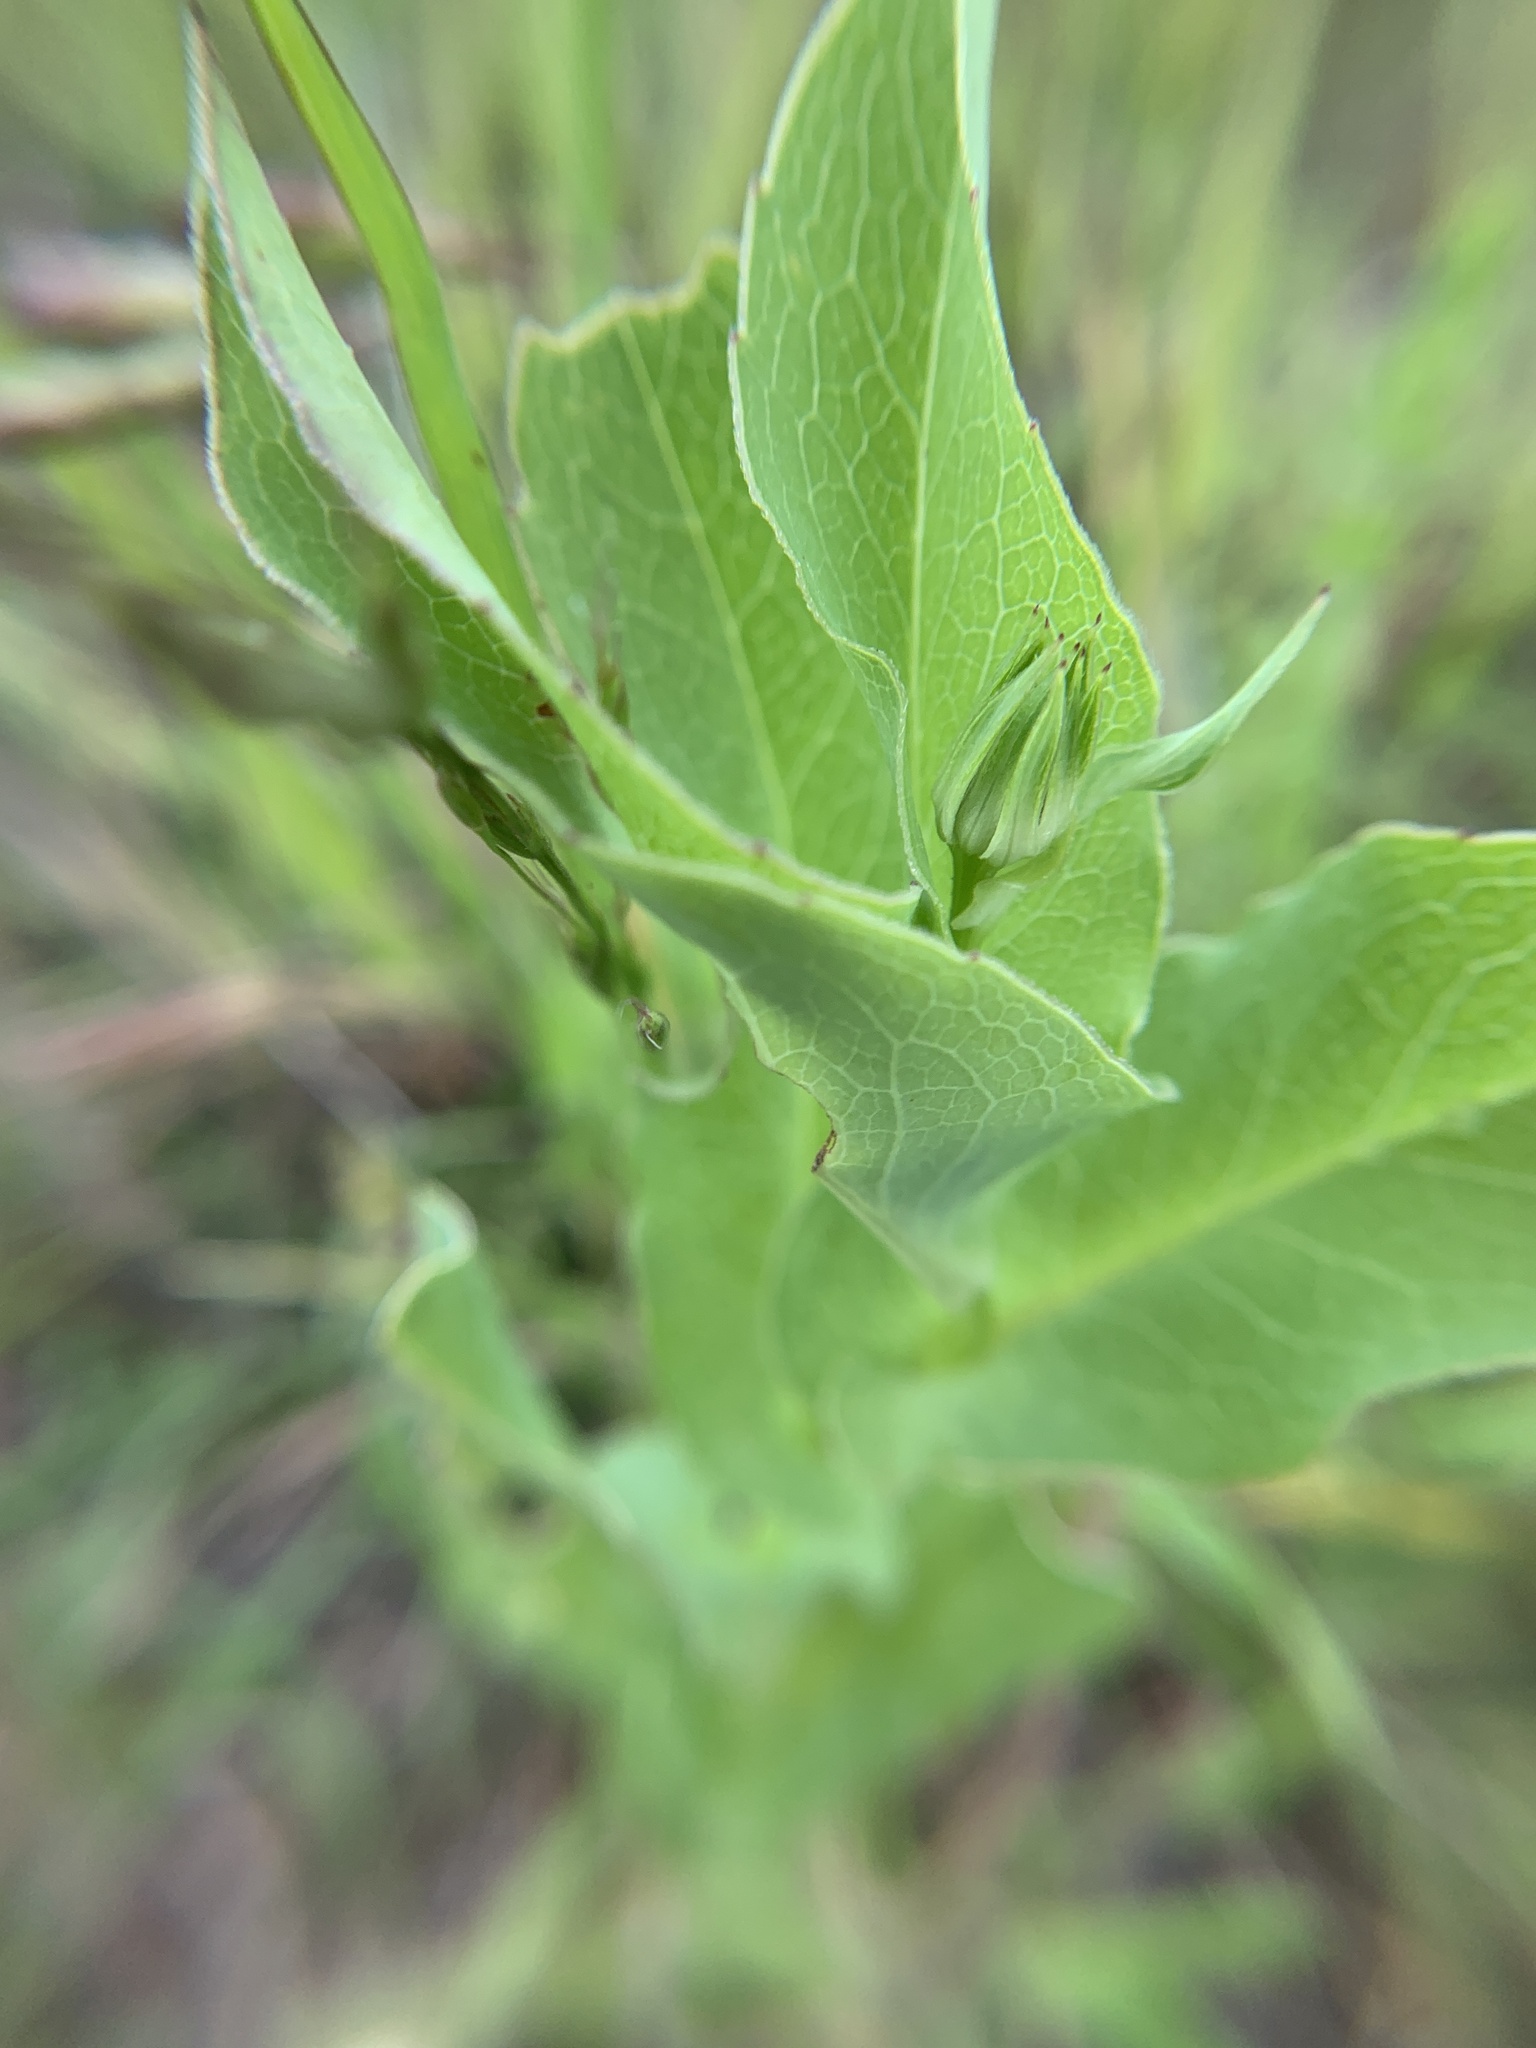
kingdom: Plantae
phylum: Tracheophyta
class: Magnoliopsida
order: Asterales
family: Asteraceae
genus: Rudbeckia
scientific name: Rudbeckia amplexicaulis
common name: Clasping-leaf coneflower
